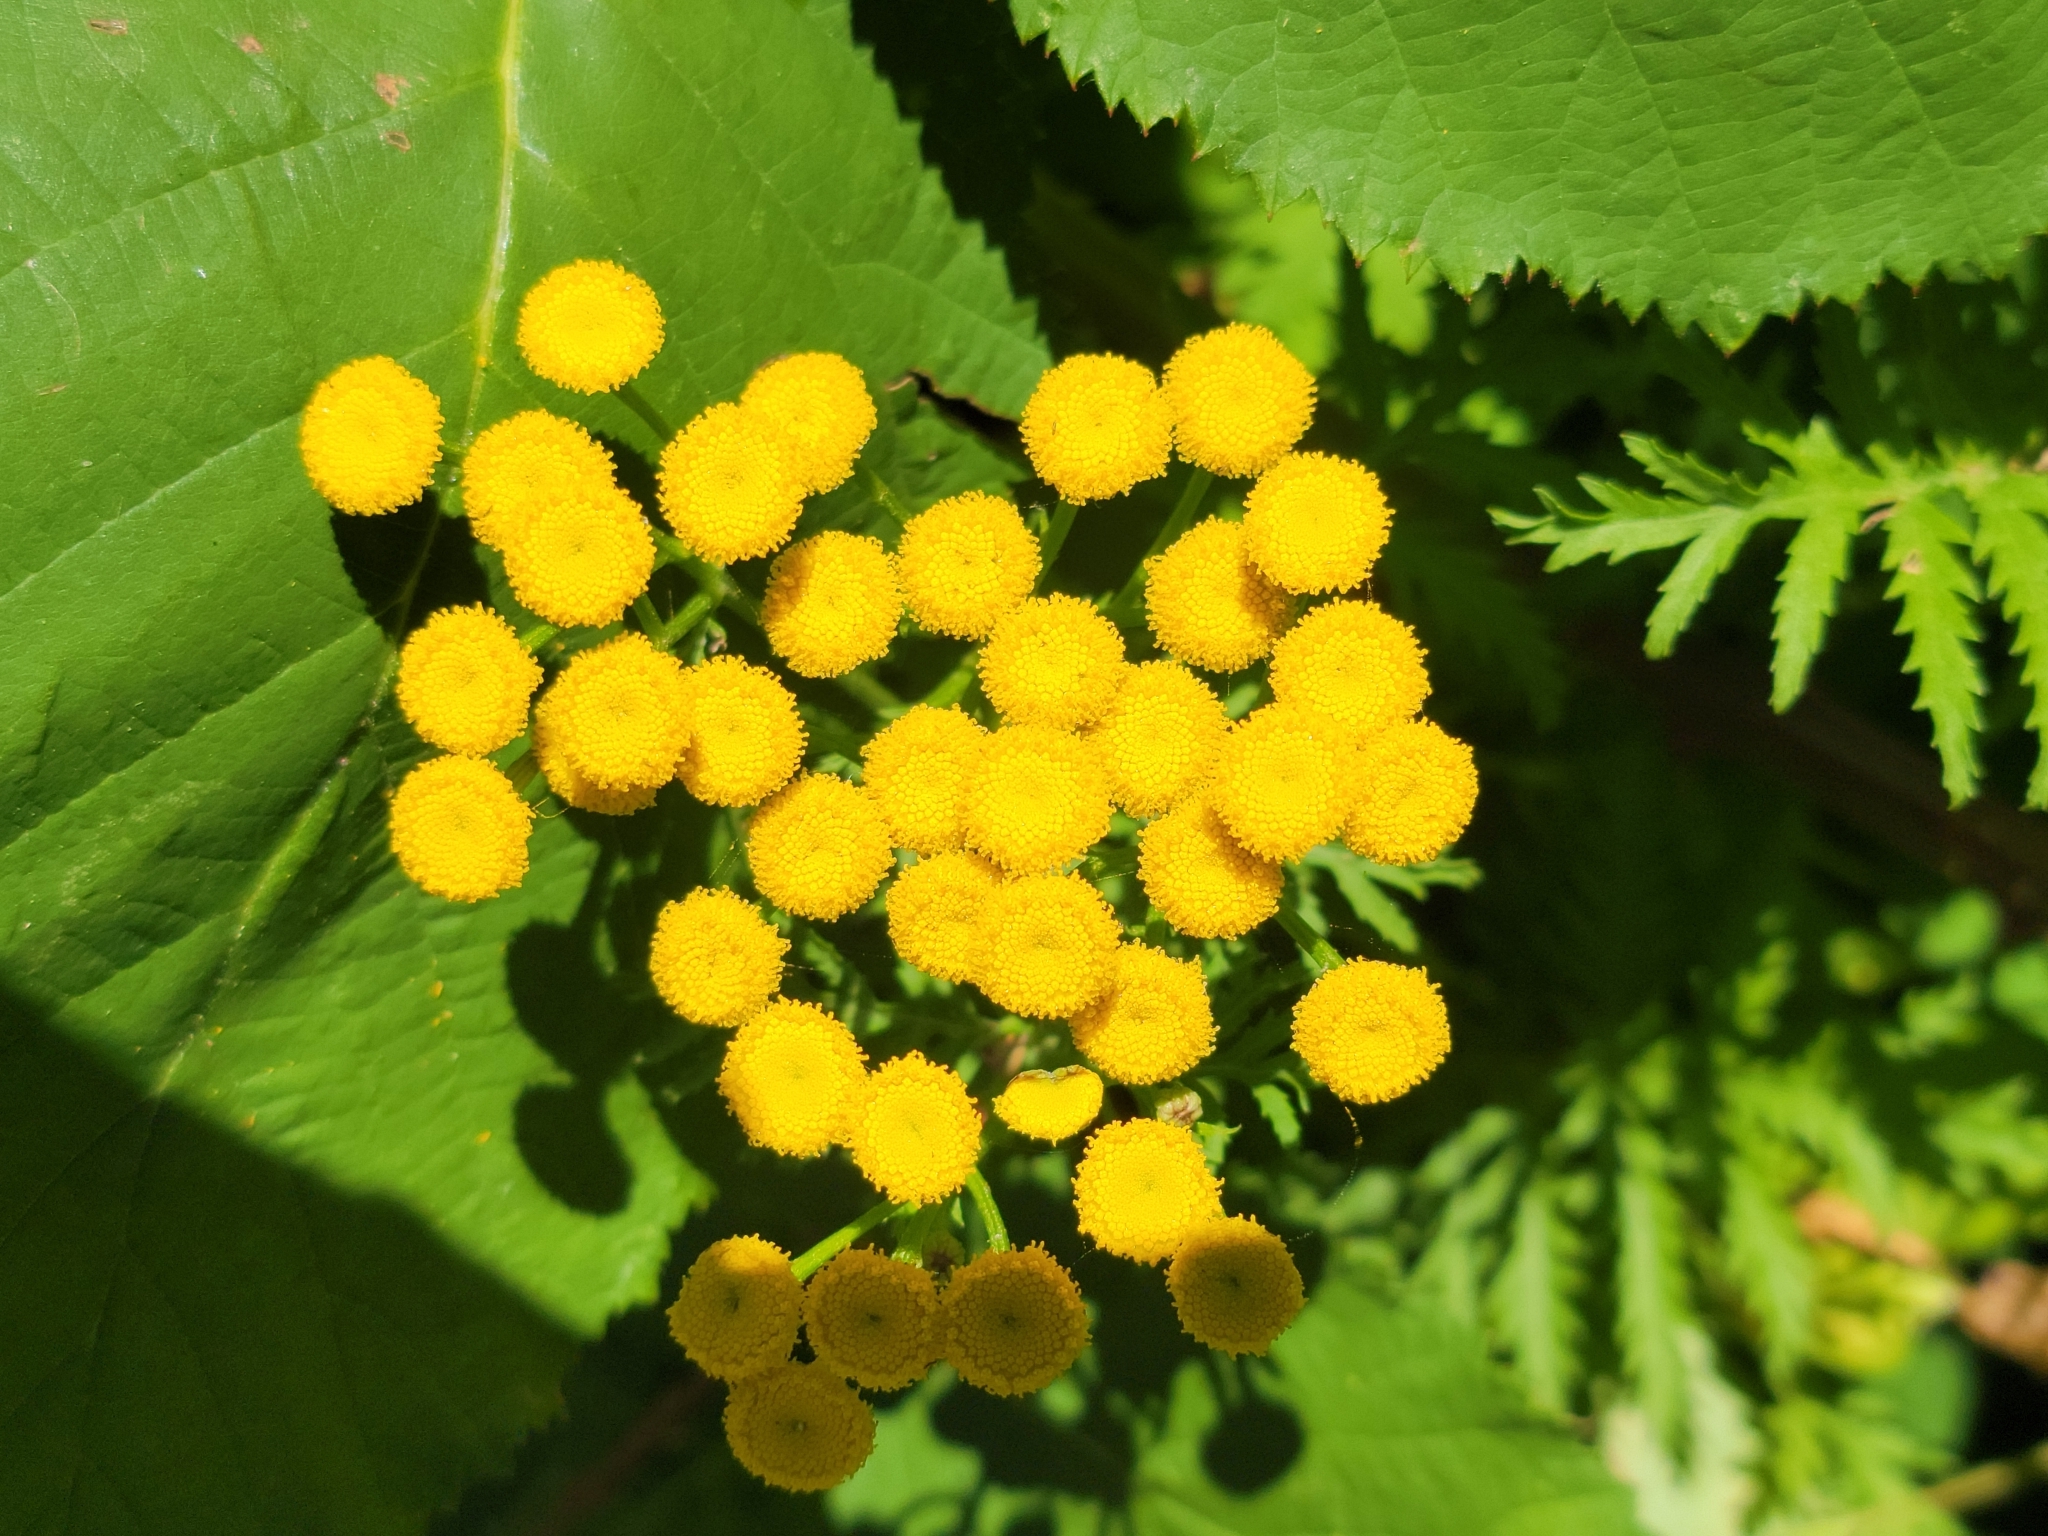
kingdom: Plantae
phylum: Tracheophyta
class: Magnoliopsida
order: Asterales
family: Asteraceae
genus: Tanacetum
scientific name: Tanacetum vulgare
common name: Common tansy
